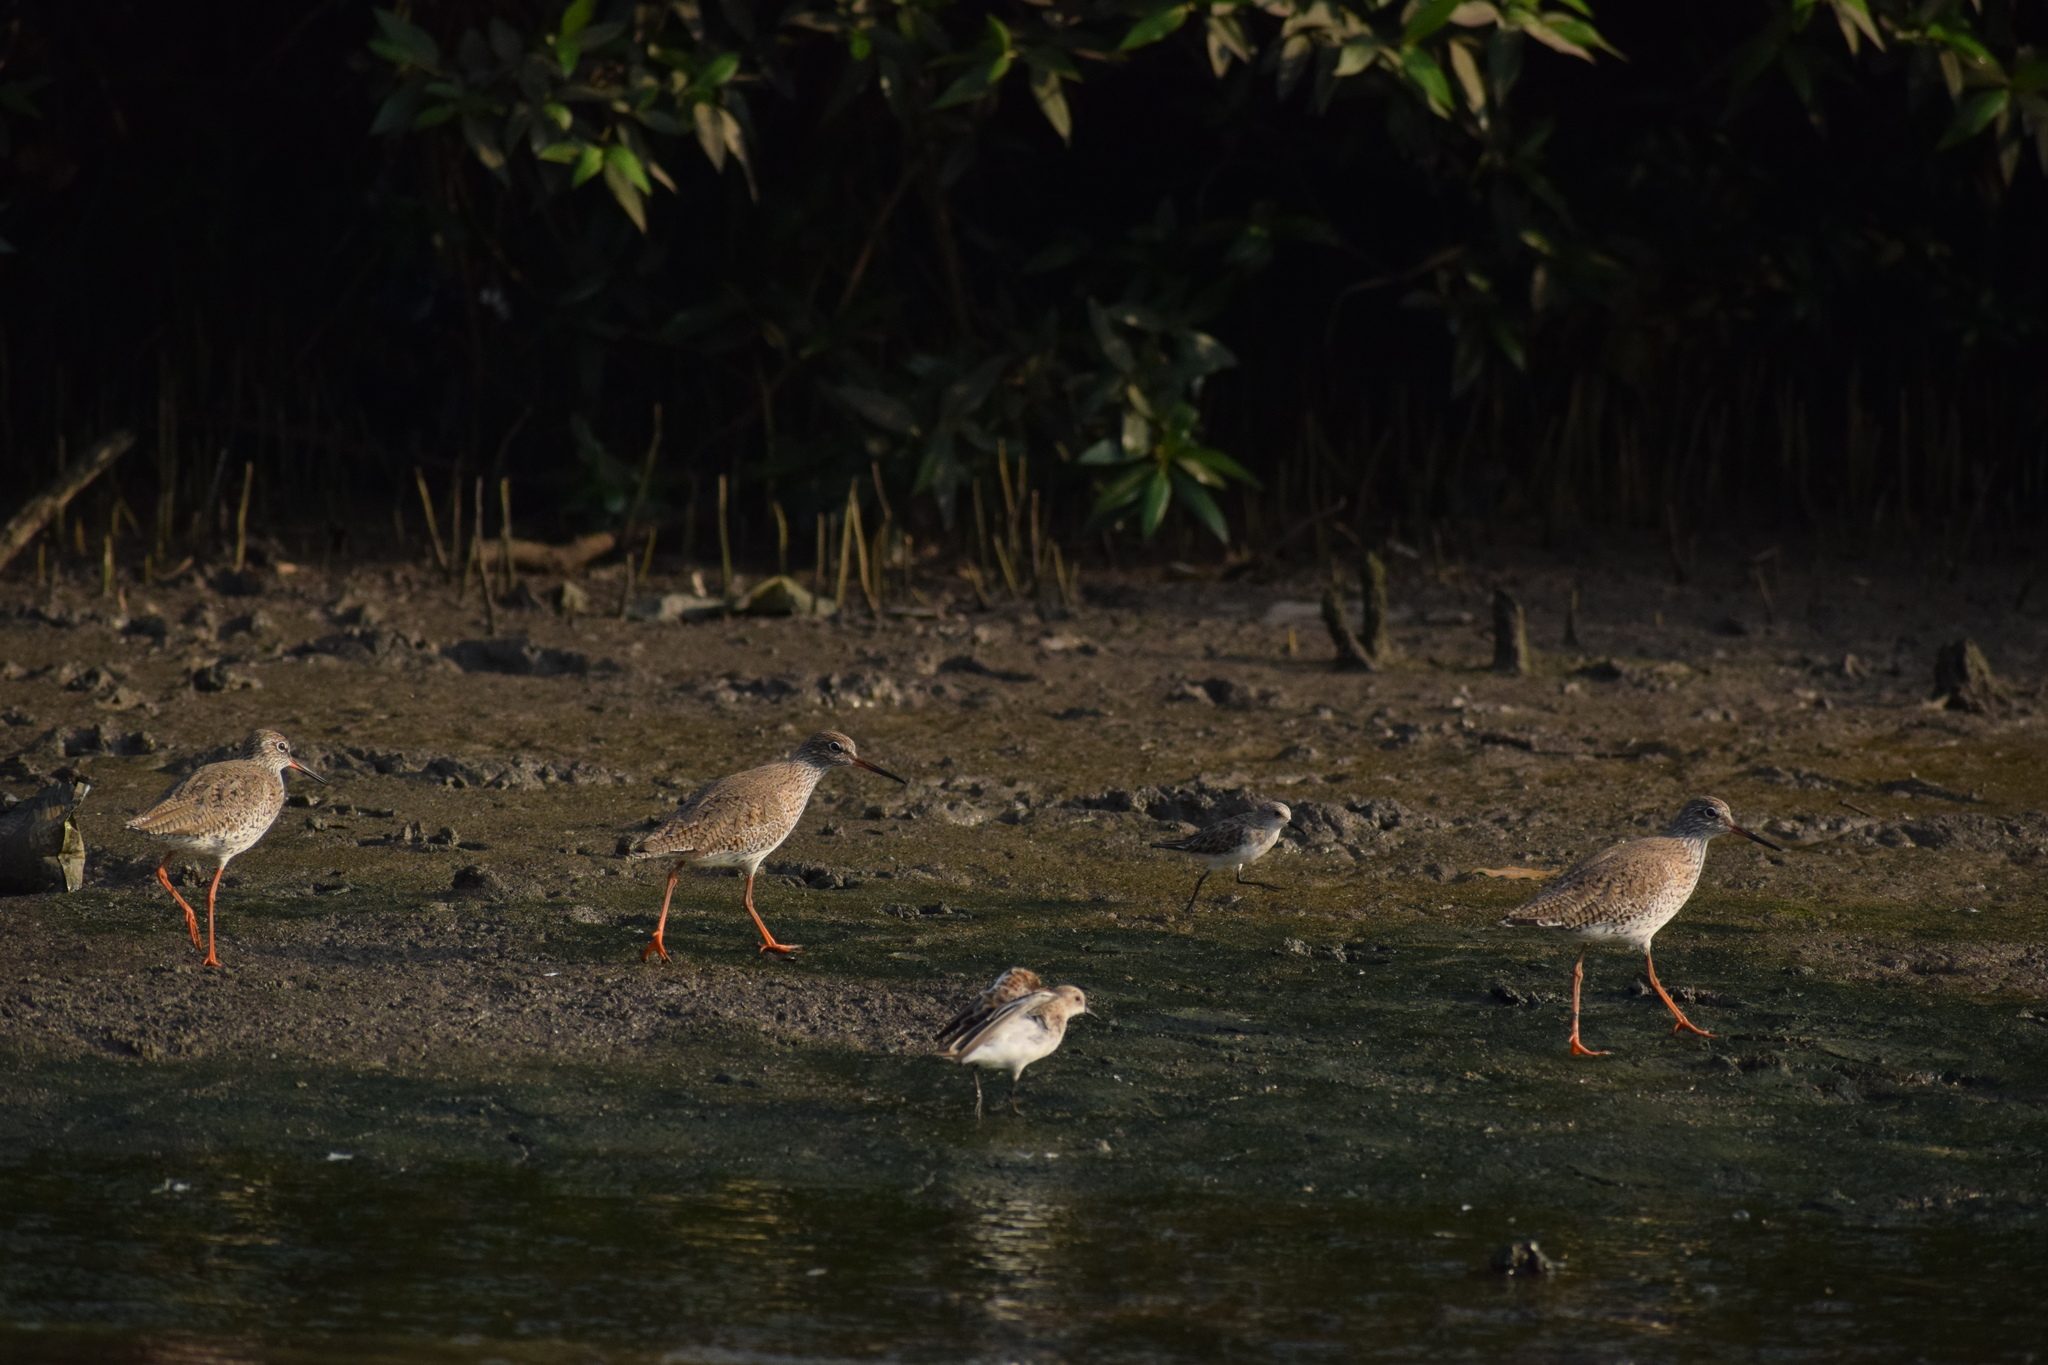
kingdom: Animalia
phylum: Chordata
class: Aves
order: Charadriiformes
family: Scolopacidae
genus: Tringa
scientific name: Tringa totanus
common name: Common redshank
